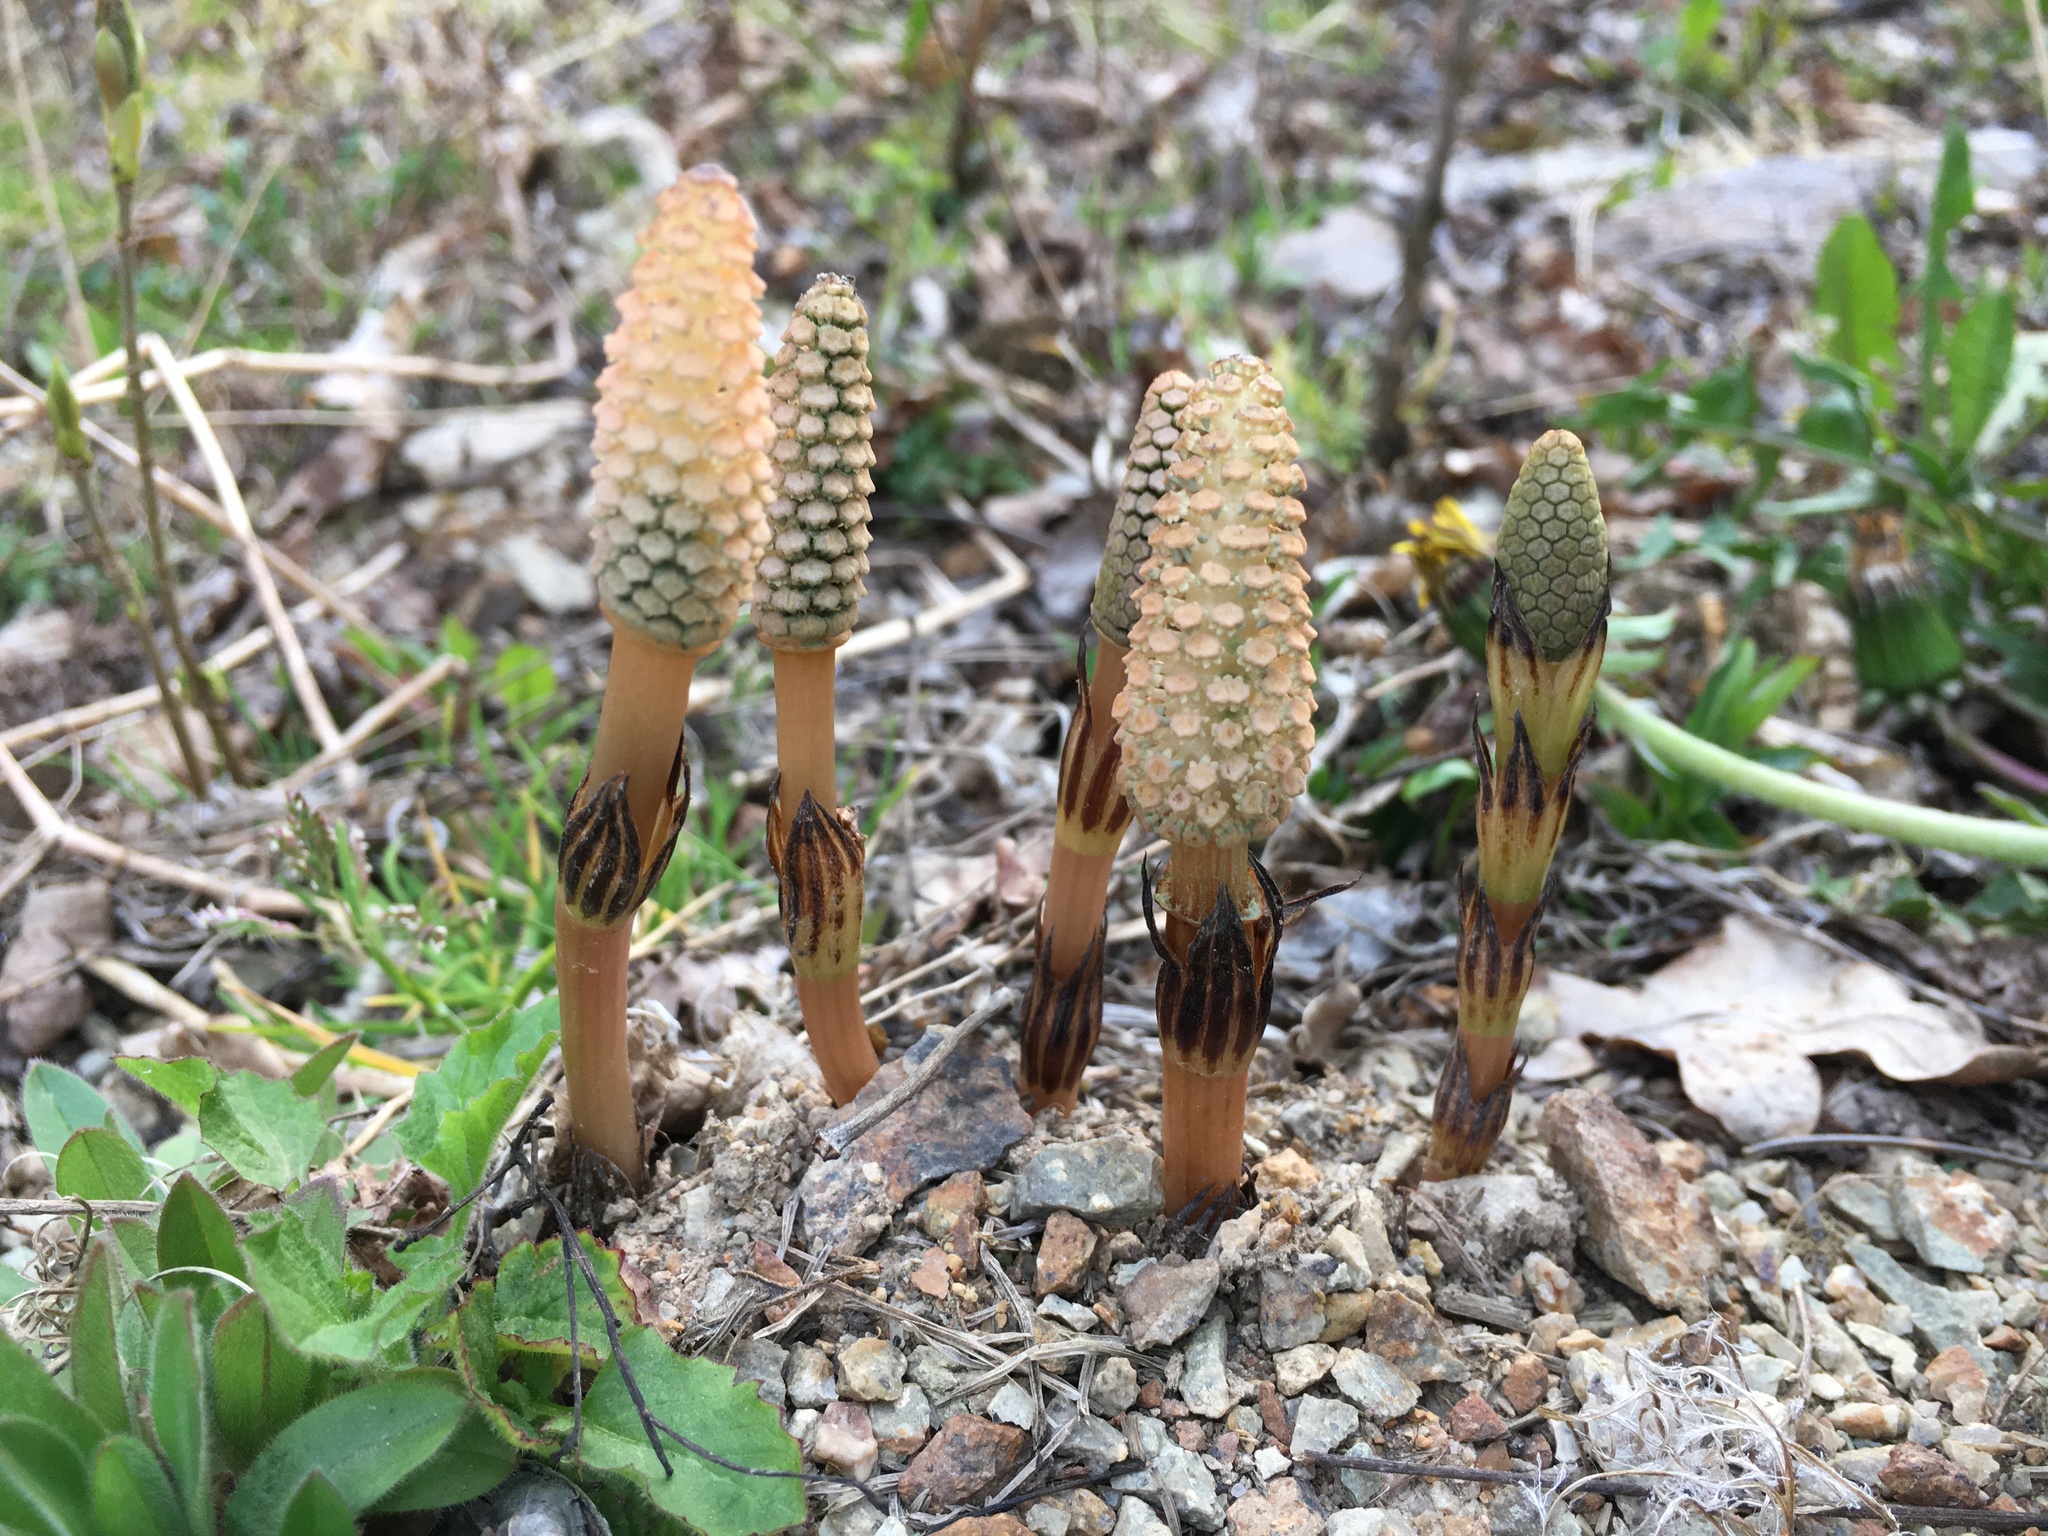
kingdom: Plantae
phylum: Tracheophyta
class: Polypodiopsida
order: Equisetales
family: Equisetaceae
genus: Equisetum
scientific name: Equisetum arvense
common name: Field horsetail
